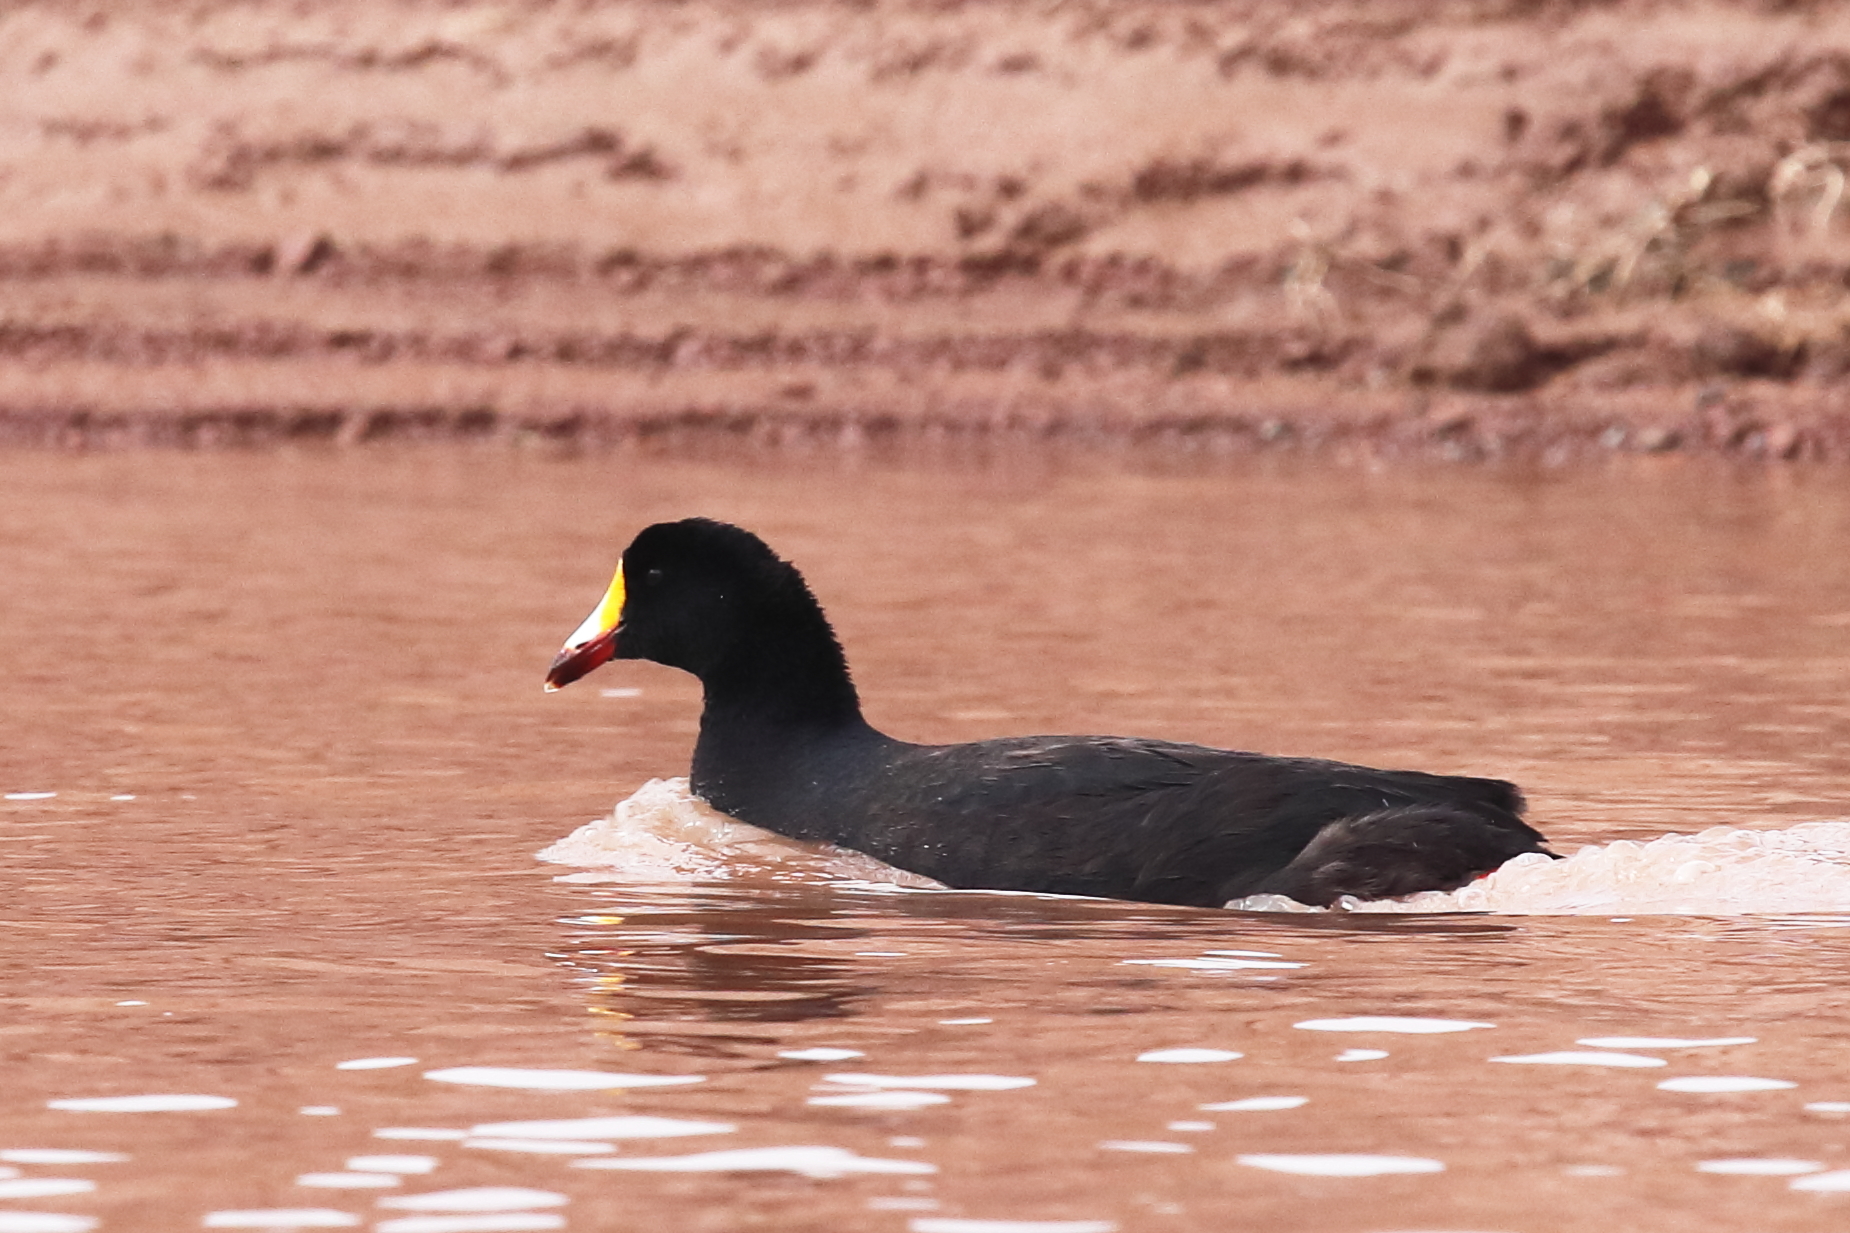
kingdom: Animalia
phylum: Chordata
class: Aves
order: Gruiformes
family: Rallidae
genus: Fulica
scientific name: Fulica gigantea
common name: Giant coot
